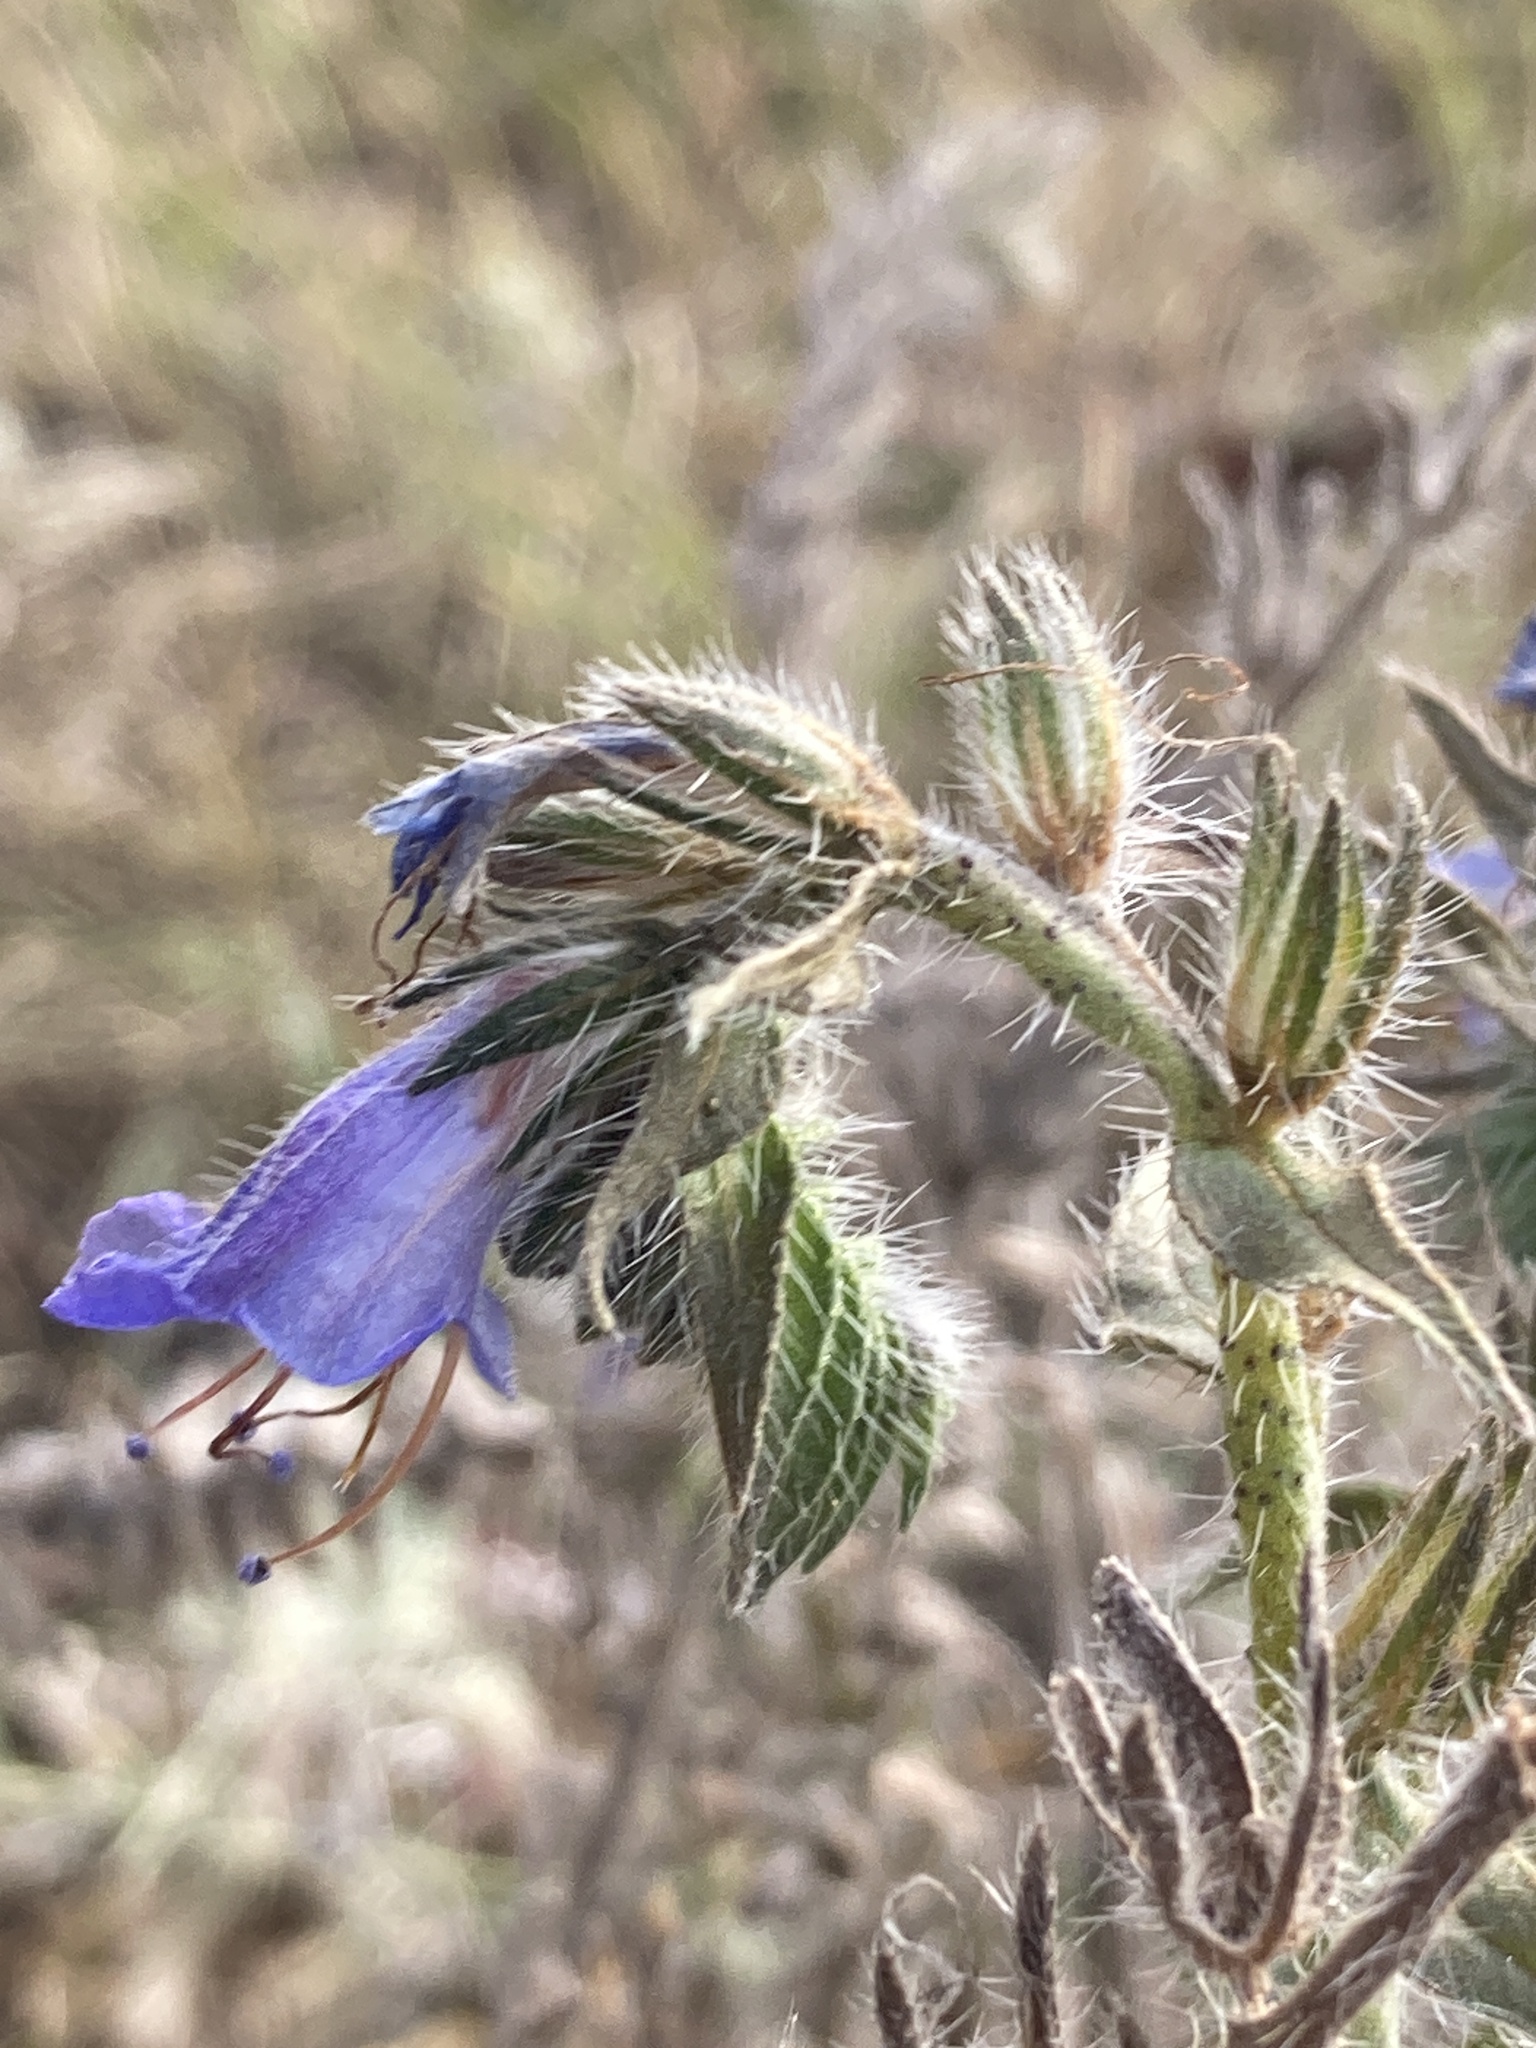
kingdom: Plantae
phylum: Tracheophyta
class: Magnoliopsida
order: Boraginales
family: Boraginaceae
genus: Echium
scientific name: Echium vulgare
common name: Common viper's bugloss
